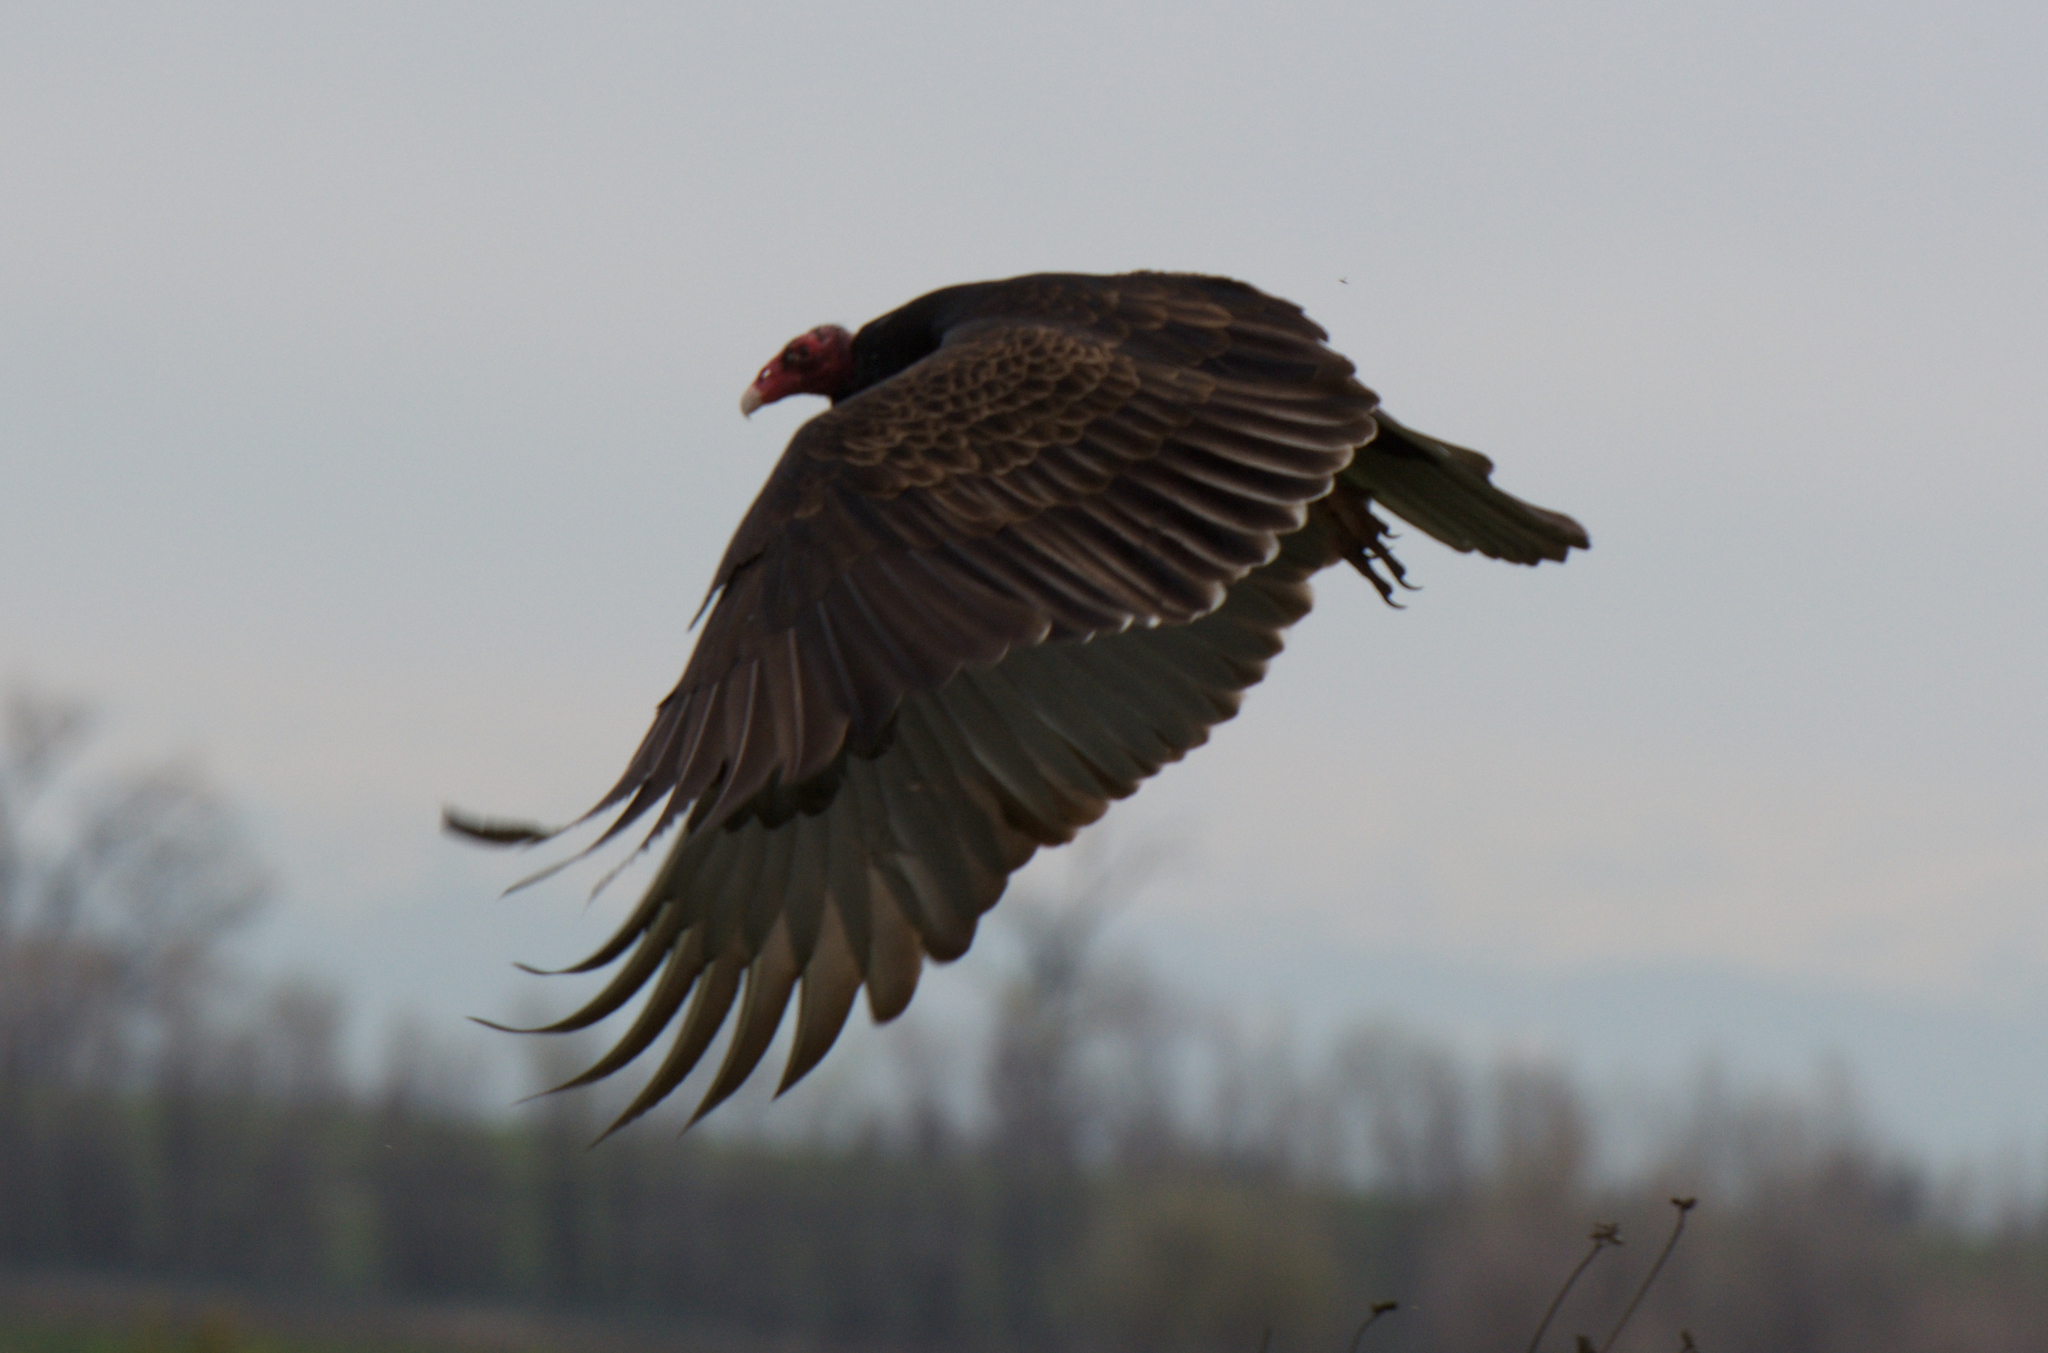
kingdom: Animalia
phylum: Chordata
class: Aves
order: Accipitriformes
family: Cathartidae
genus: Cathartes
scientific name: Cathartes aura
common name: Turkey vulture
